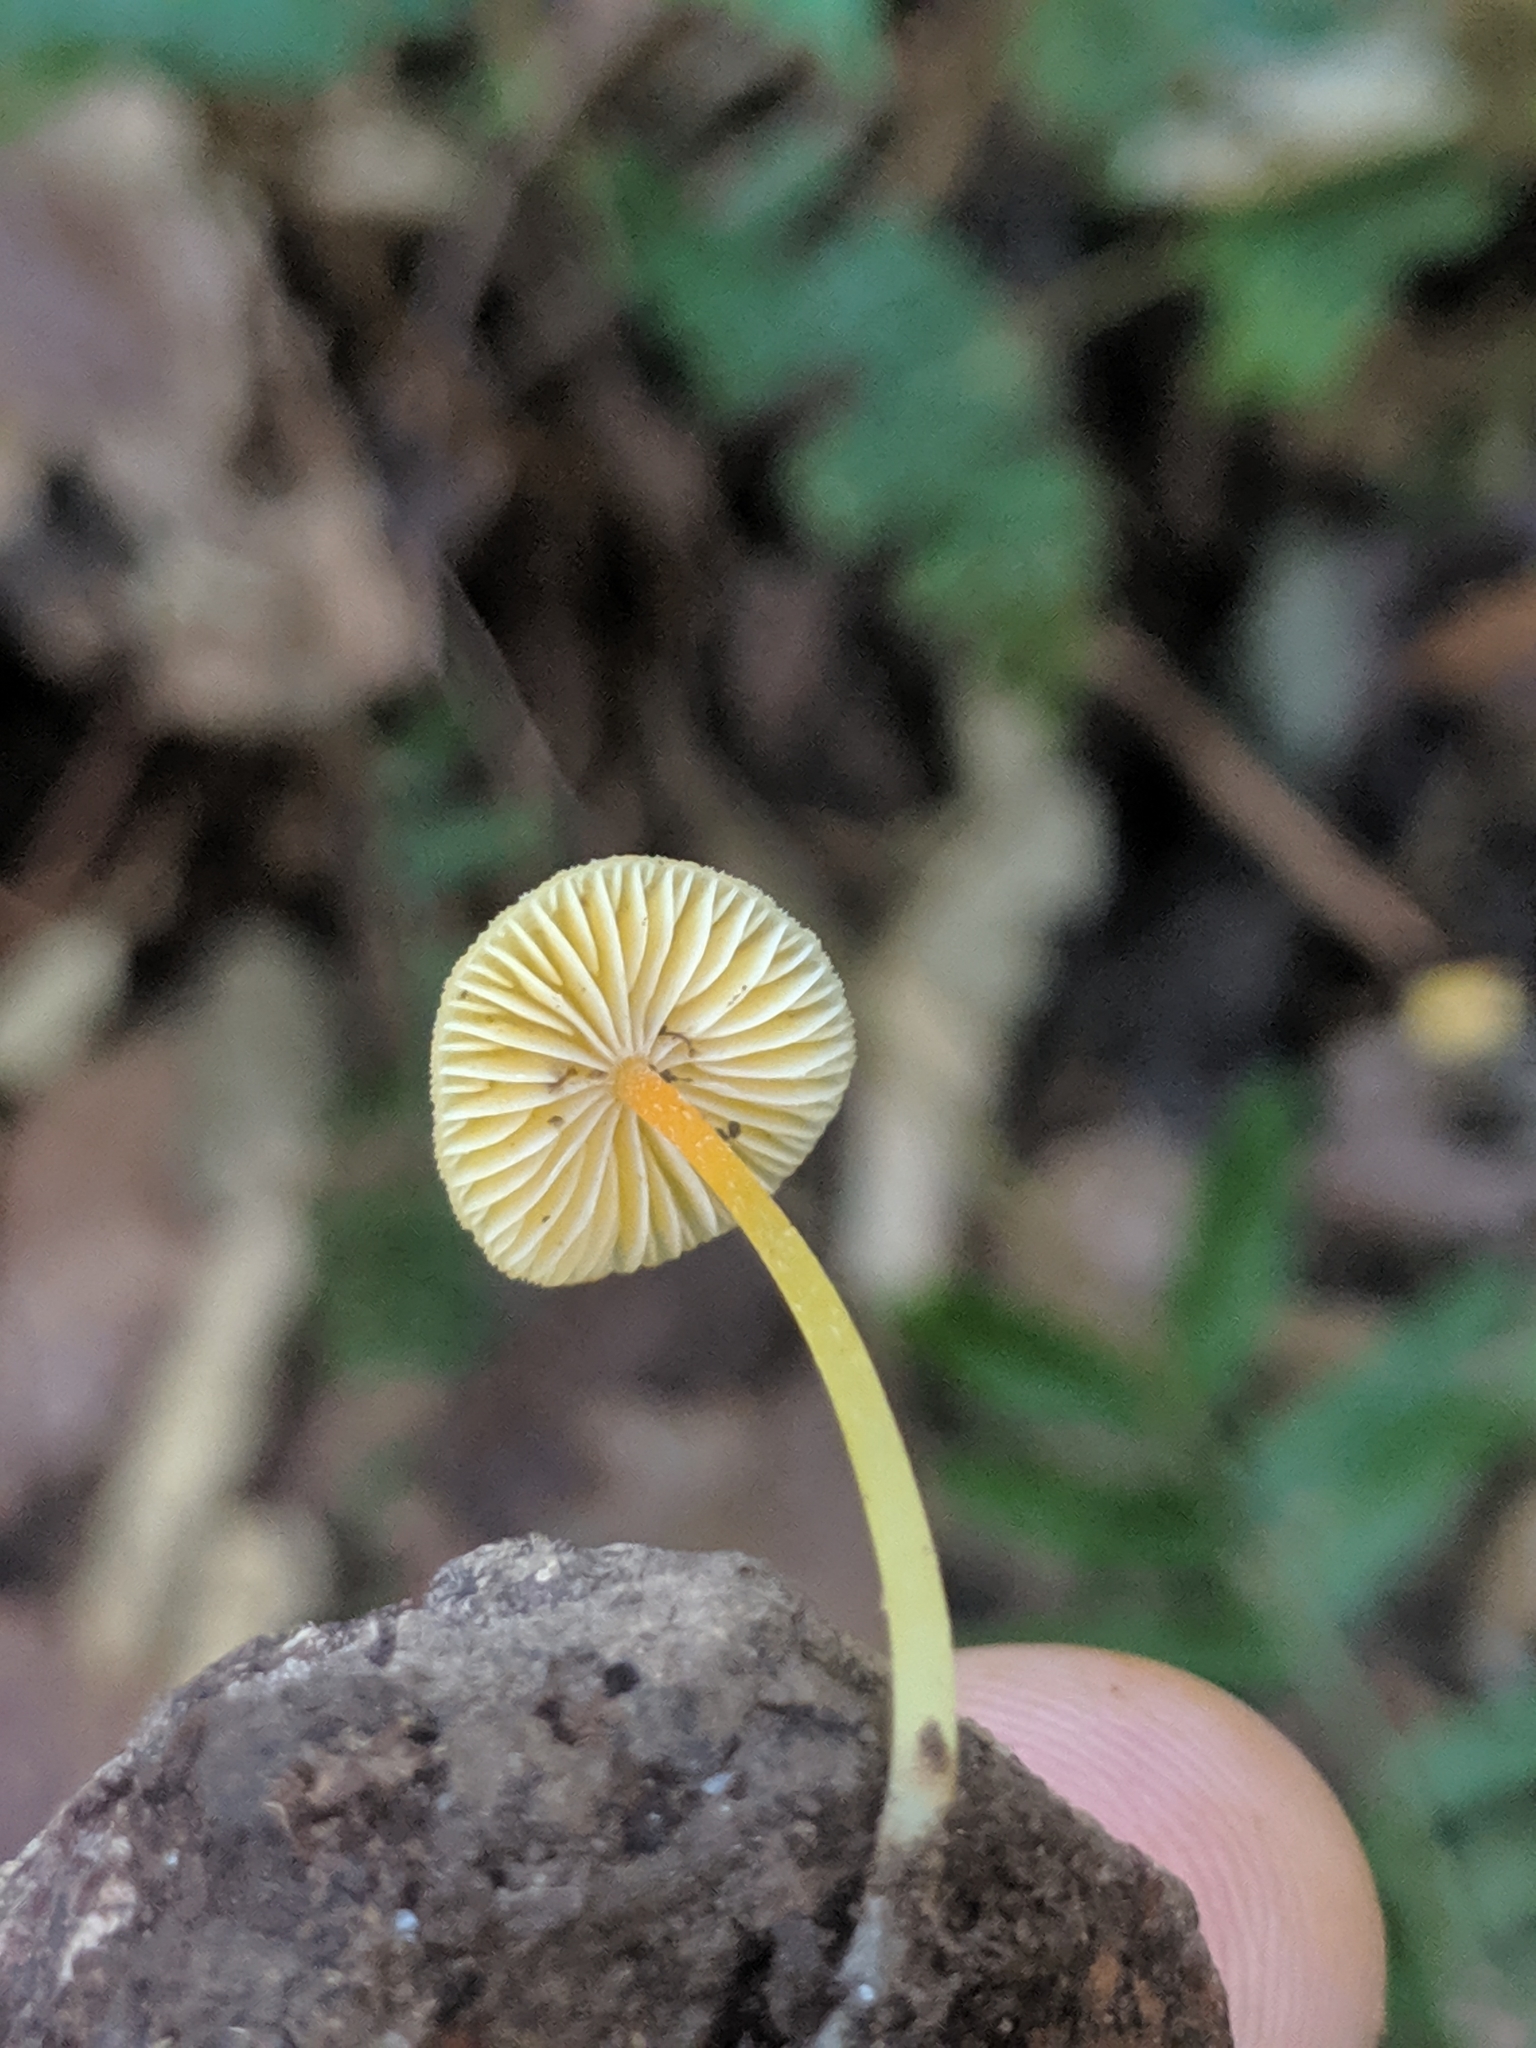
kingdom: Fungi
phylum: Basidiomycota
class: Agaricomycetes
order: Agaricales
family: Mycenaceae
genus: Mycena
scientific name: Mycena crocea
